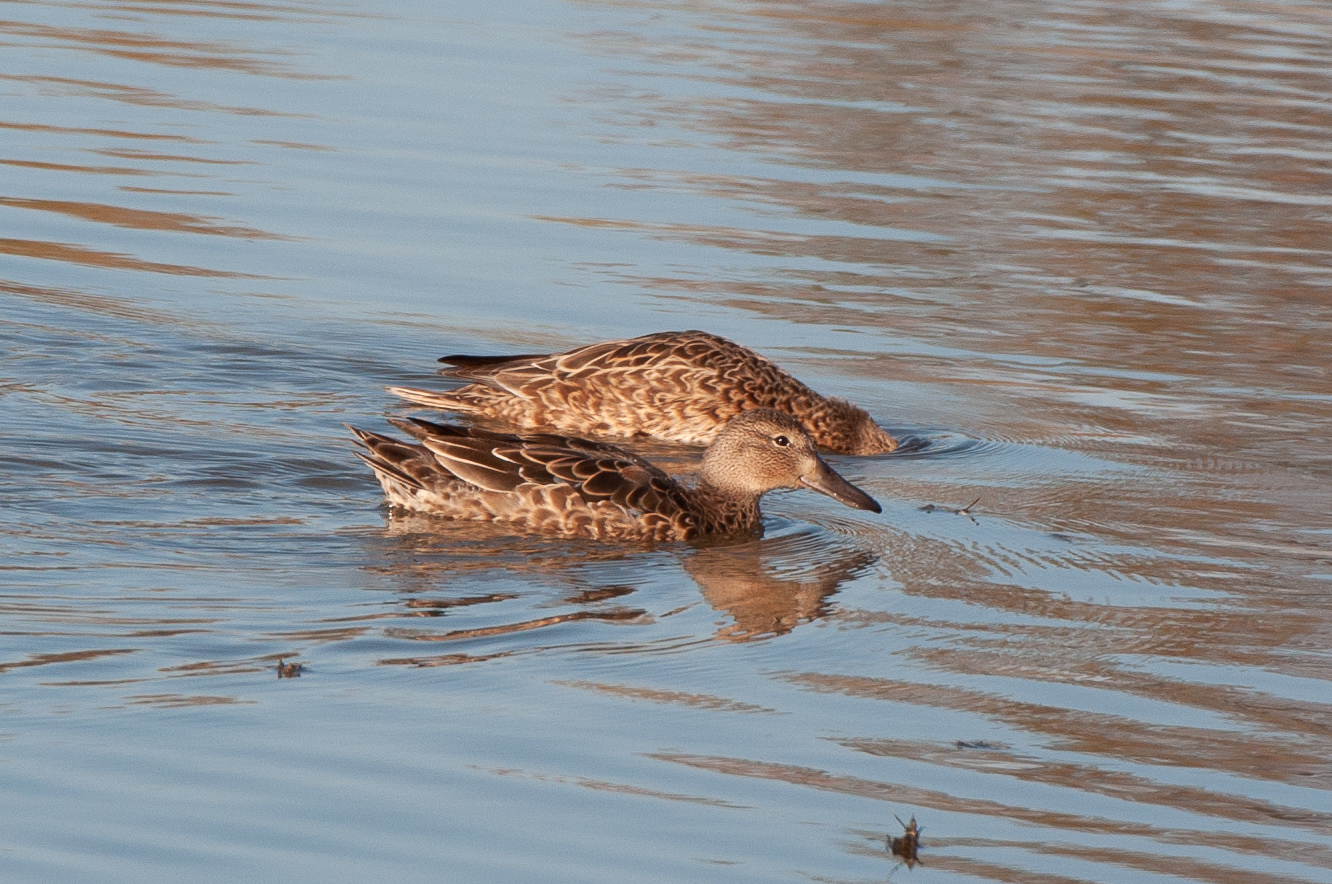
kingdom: Animalia
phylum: Chordata
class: Aves
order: Anseriformes
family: Anatidae
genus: Spatula
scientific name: Spatula cyanoptera
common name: Cinnamon teal
